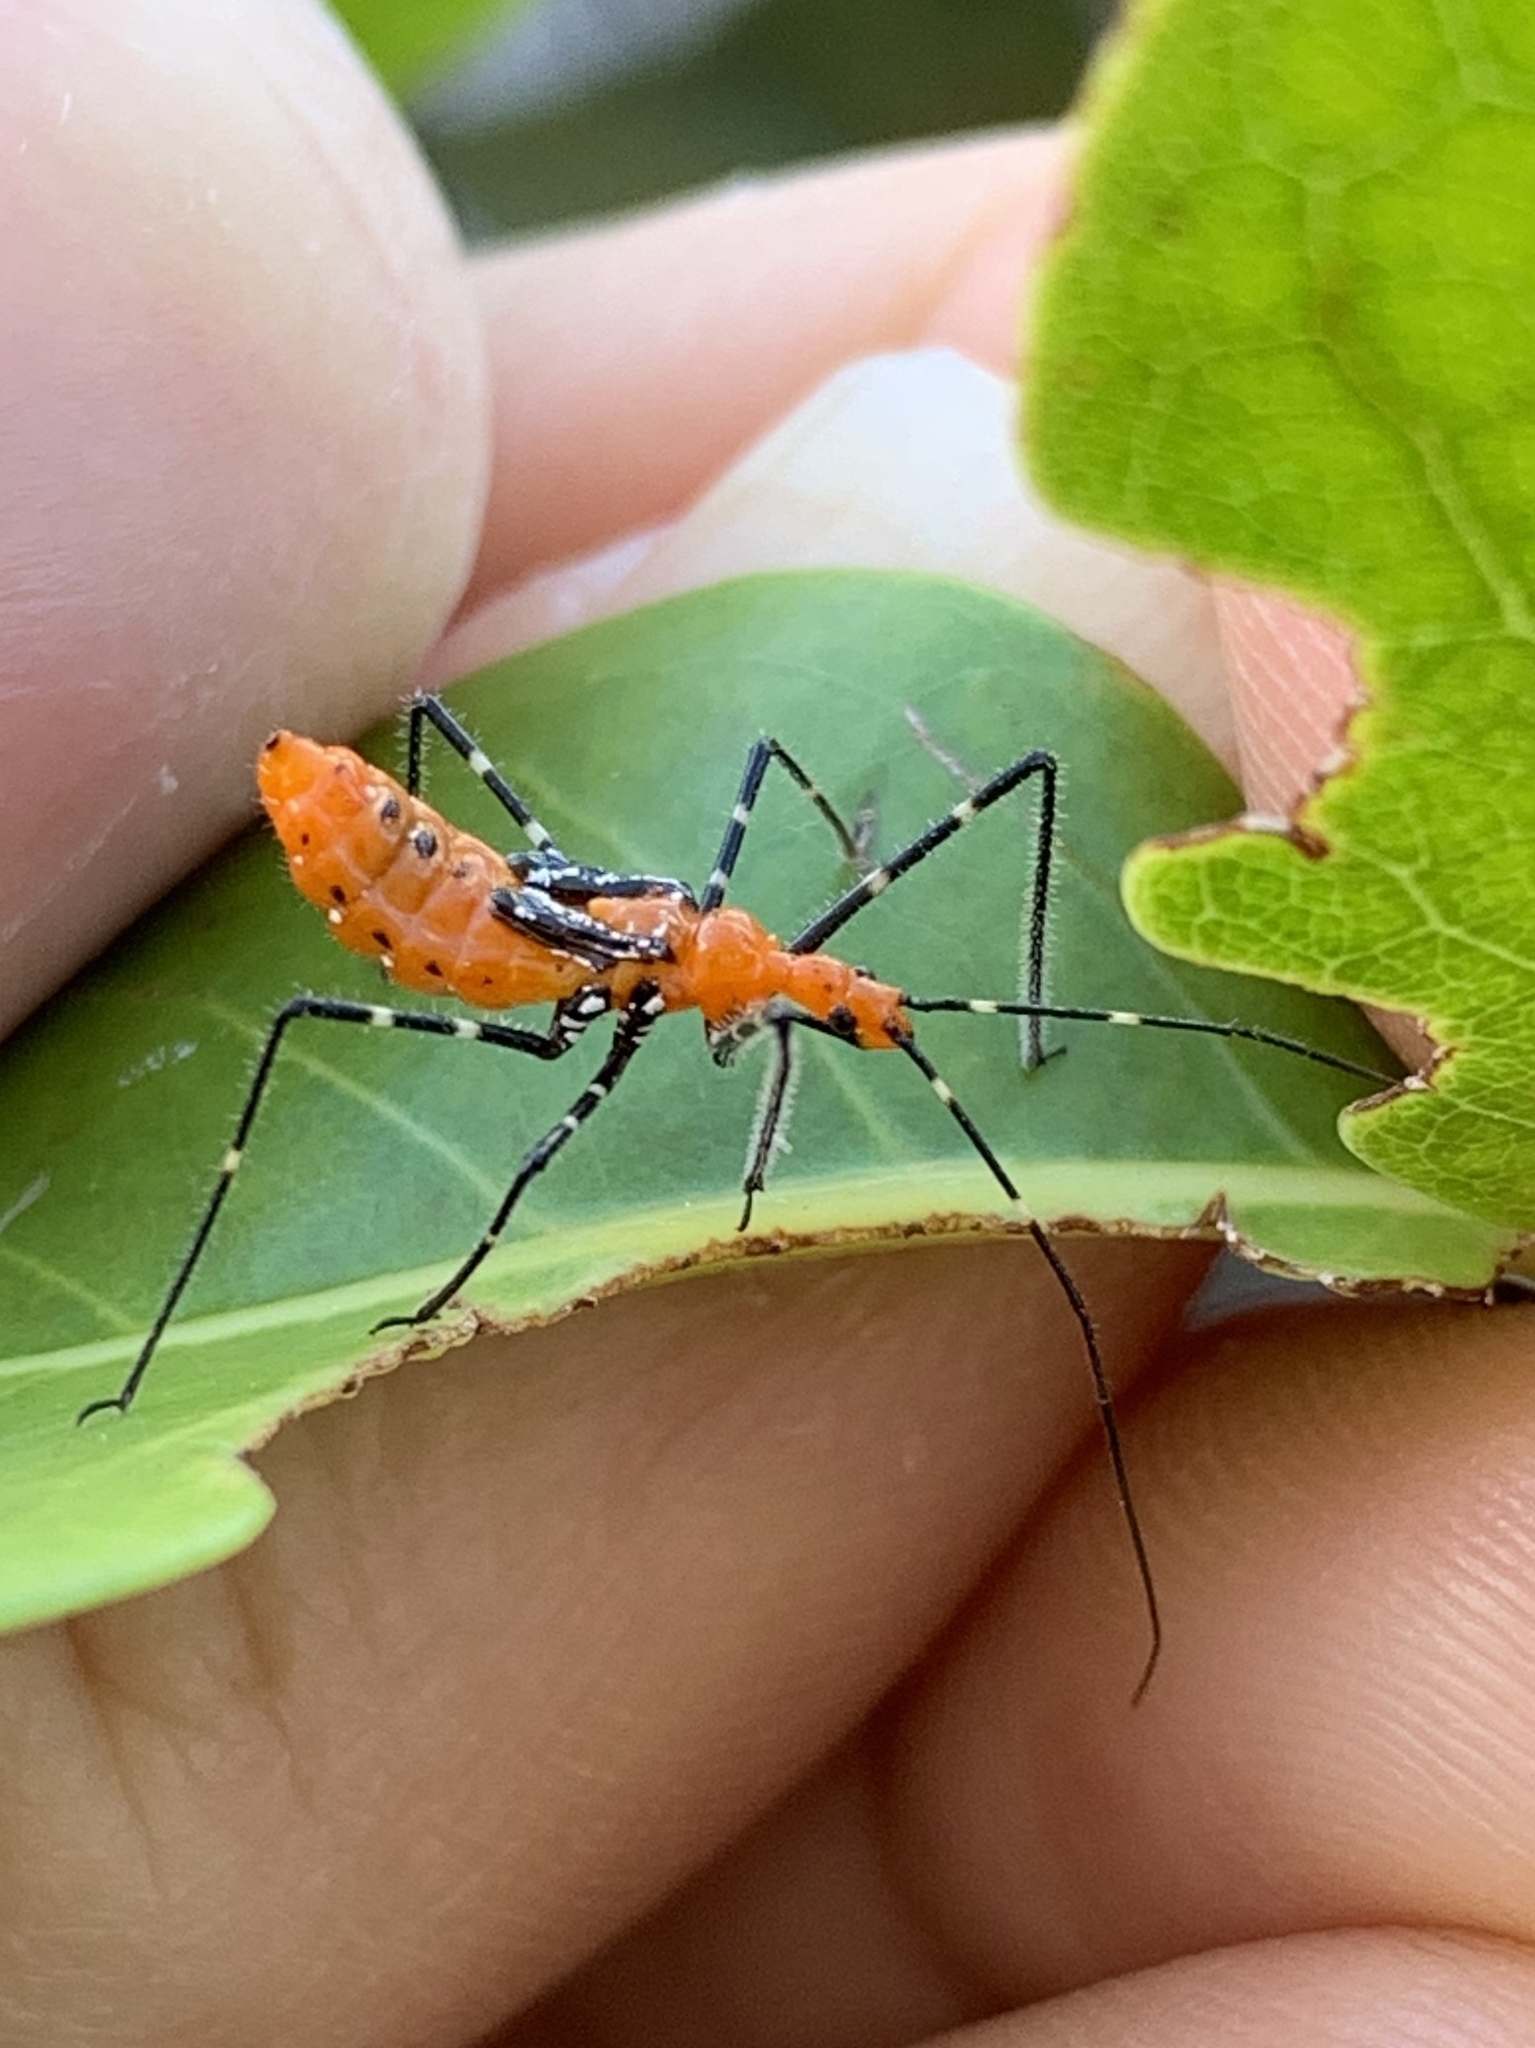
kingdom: Animalia
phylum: Arthropoda
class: Insecta
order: Hemiptera
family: Reduviidae
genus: Zelus
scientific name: Zelus longipes
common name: Milkweed assassin bug
